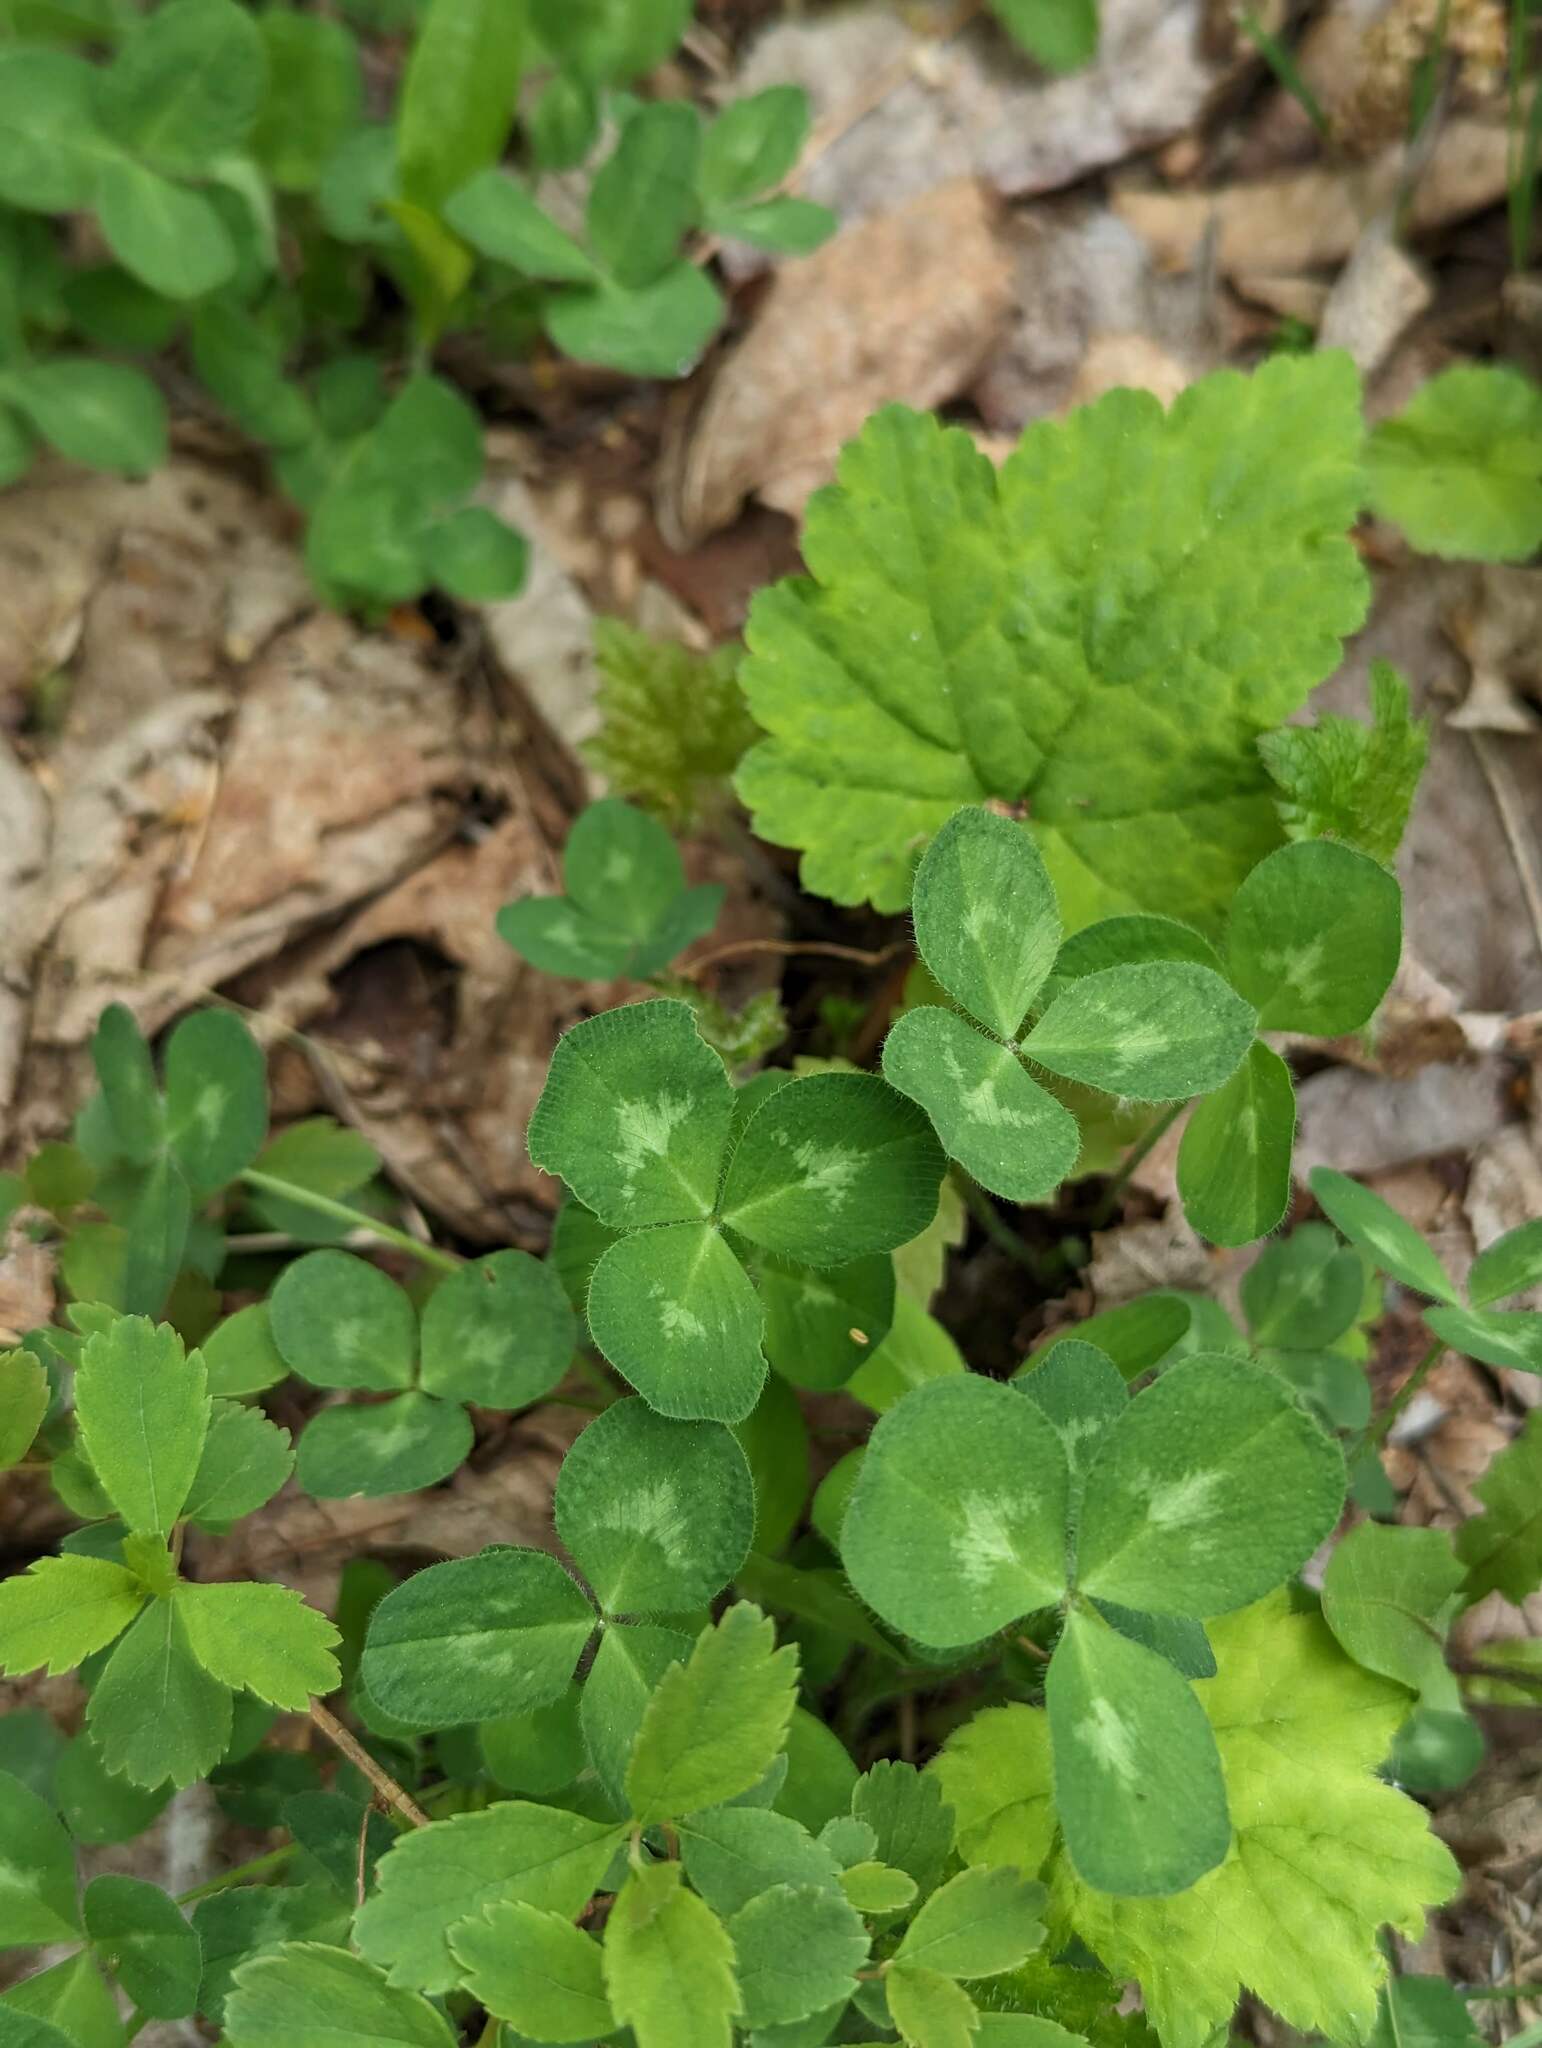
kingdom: Plantae
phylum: Tracheophyta
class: Magnoliopsida
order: Fabales
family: Fabaceae
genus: Trifolium
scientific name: Trifolium pratense
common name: Red clover
